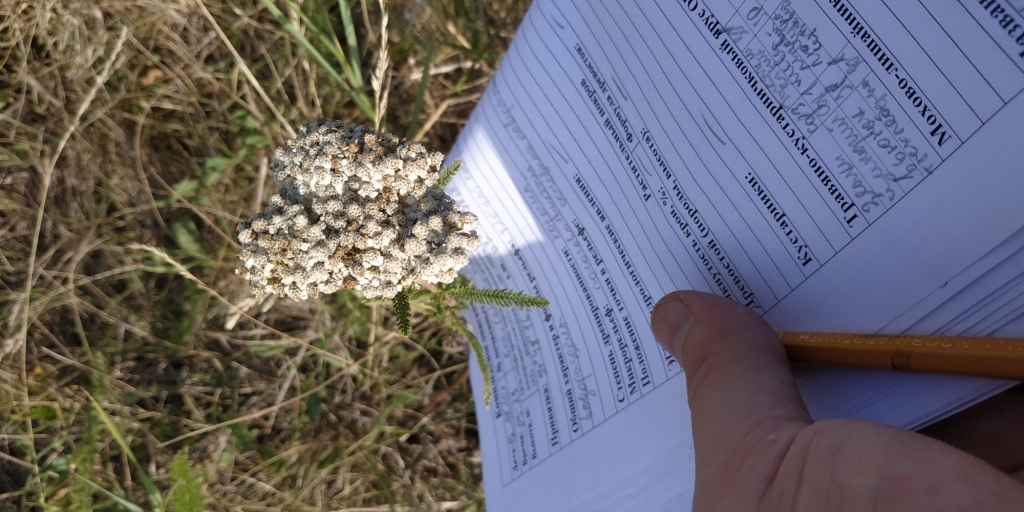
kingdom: Plantae
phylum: Tracheophyta
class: Magnoliopsida
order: Asterales
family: Asteraceae
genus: Achillea
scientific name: Achillea millefolium
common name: Yarrow
